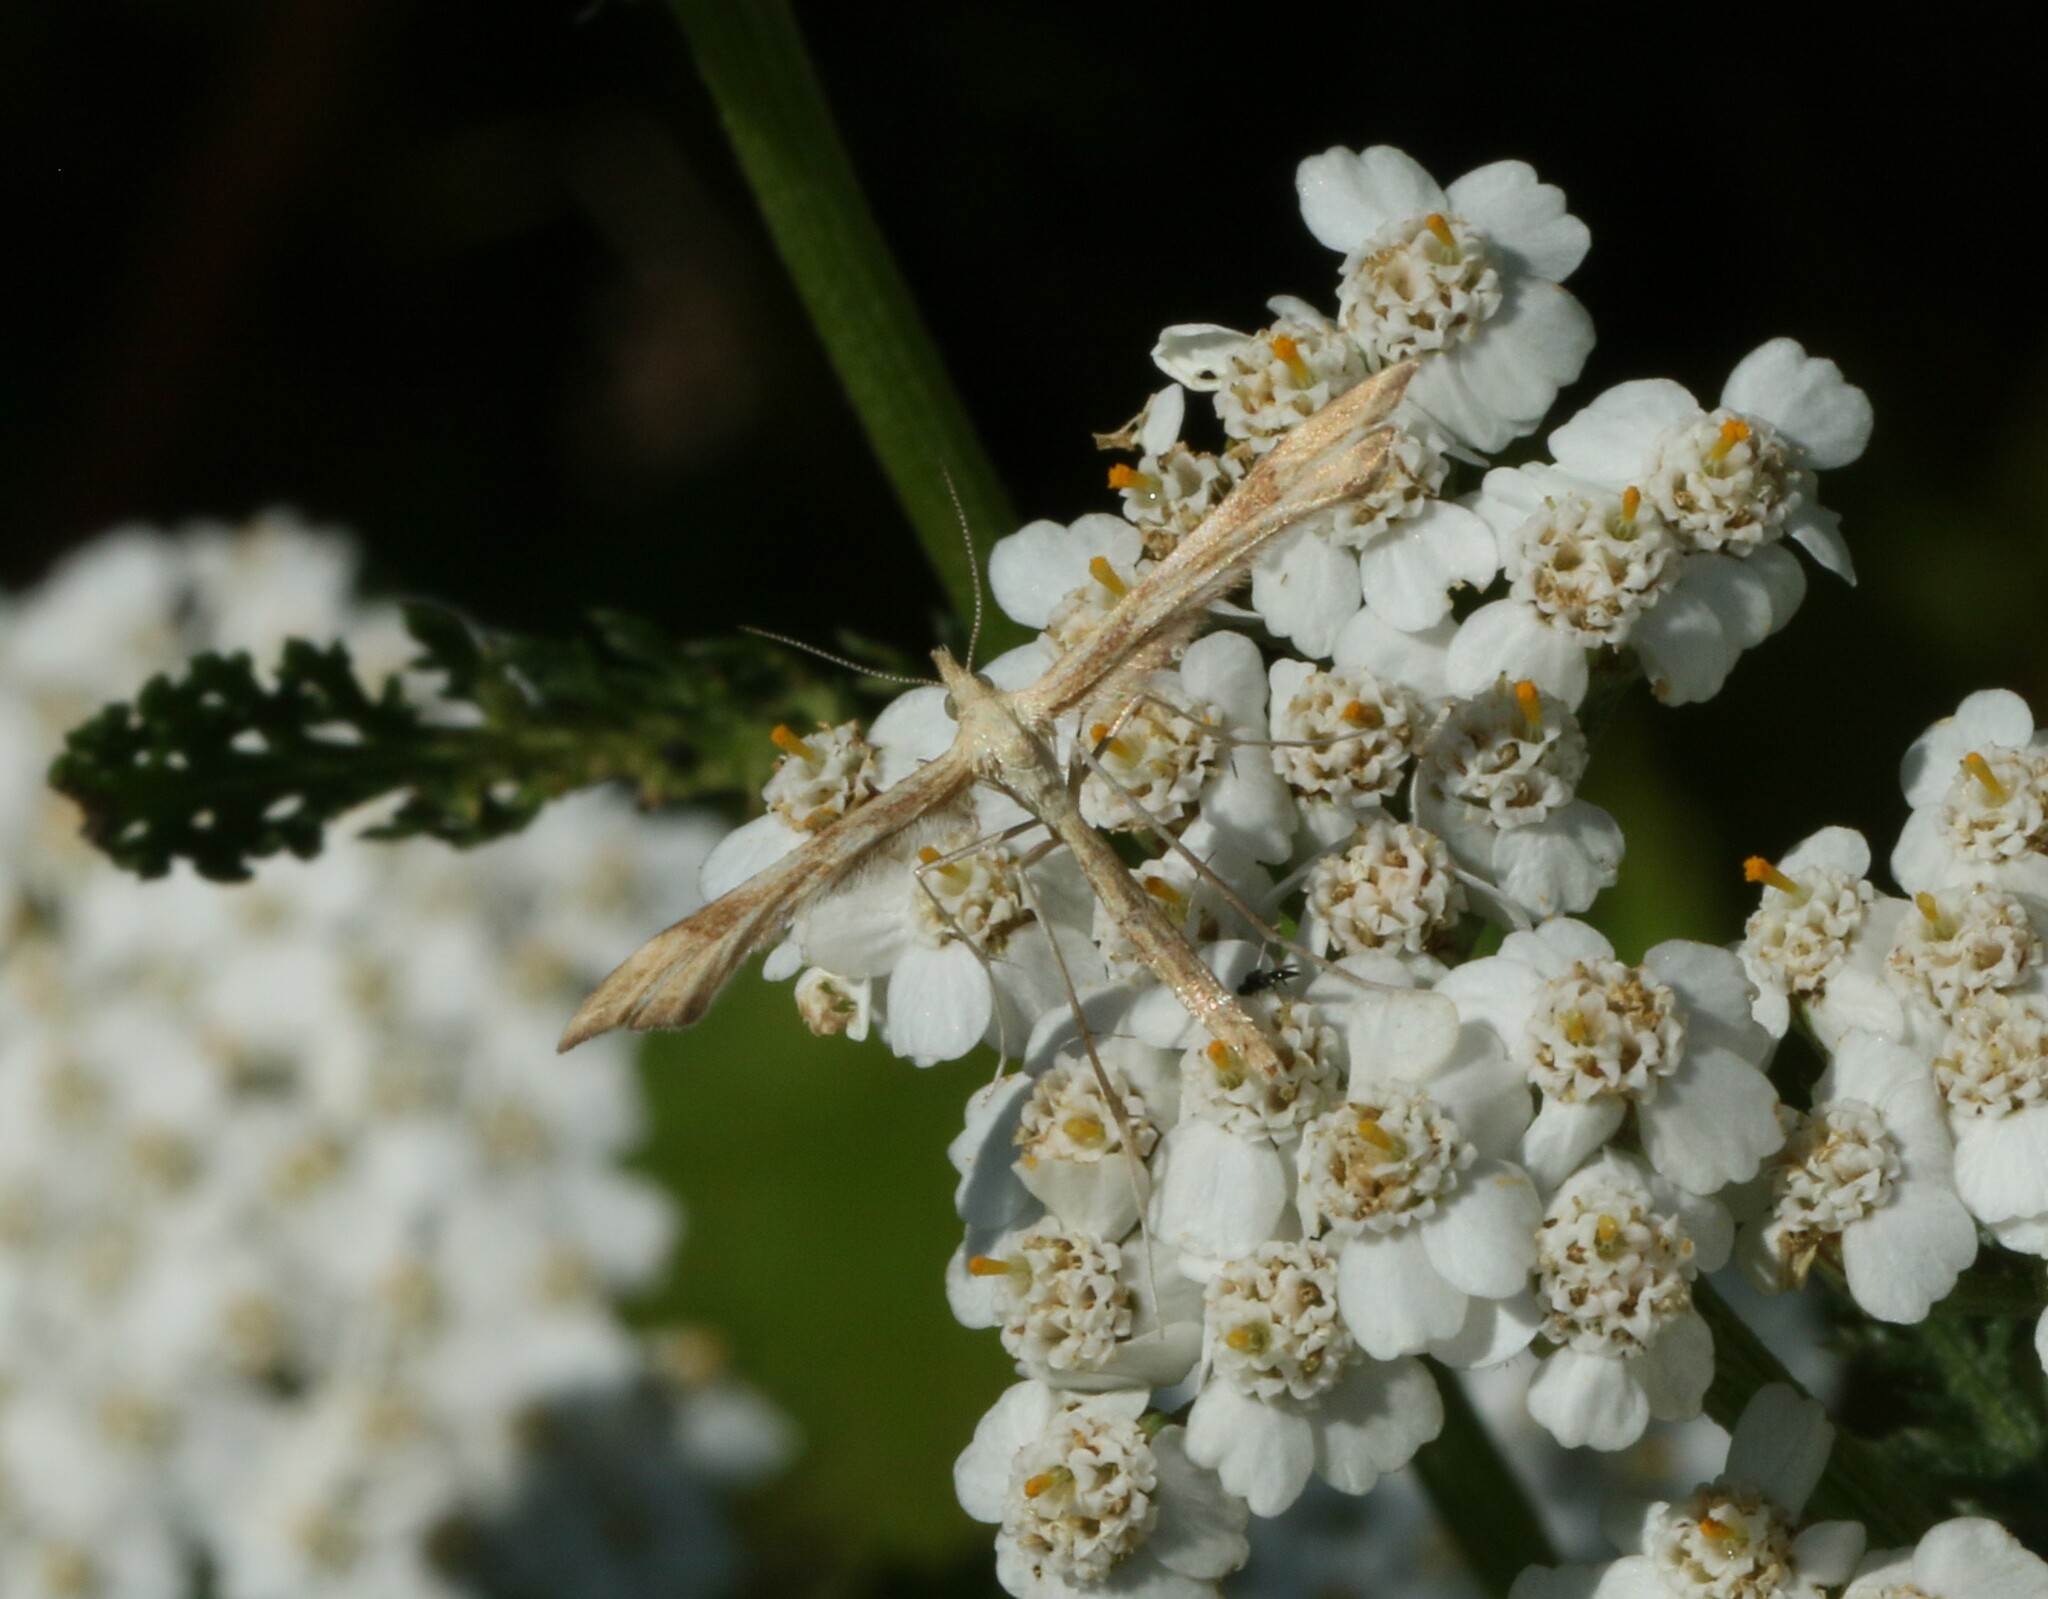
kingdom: Animalia
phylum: Arthropoda
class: Insecta
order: Lepidoptera
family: Pterophoridae
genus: Gillmeria
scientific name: Gillmeria pallidactyla
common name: Yarrow plume
